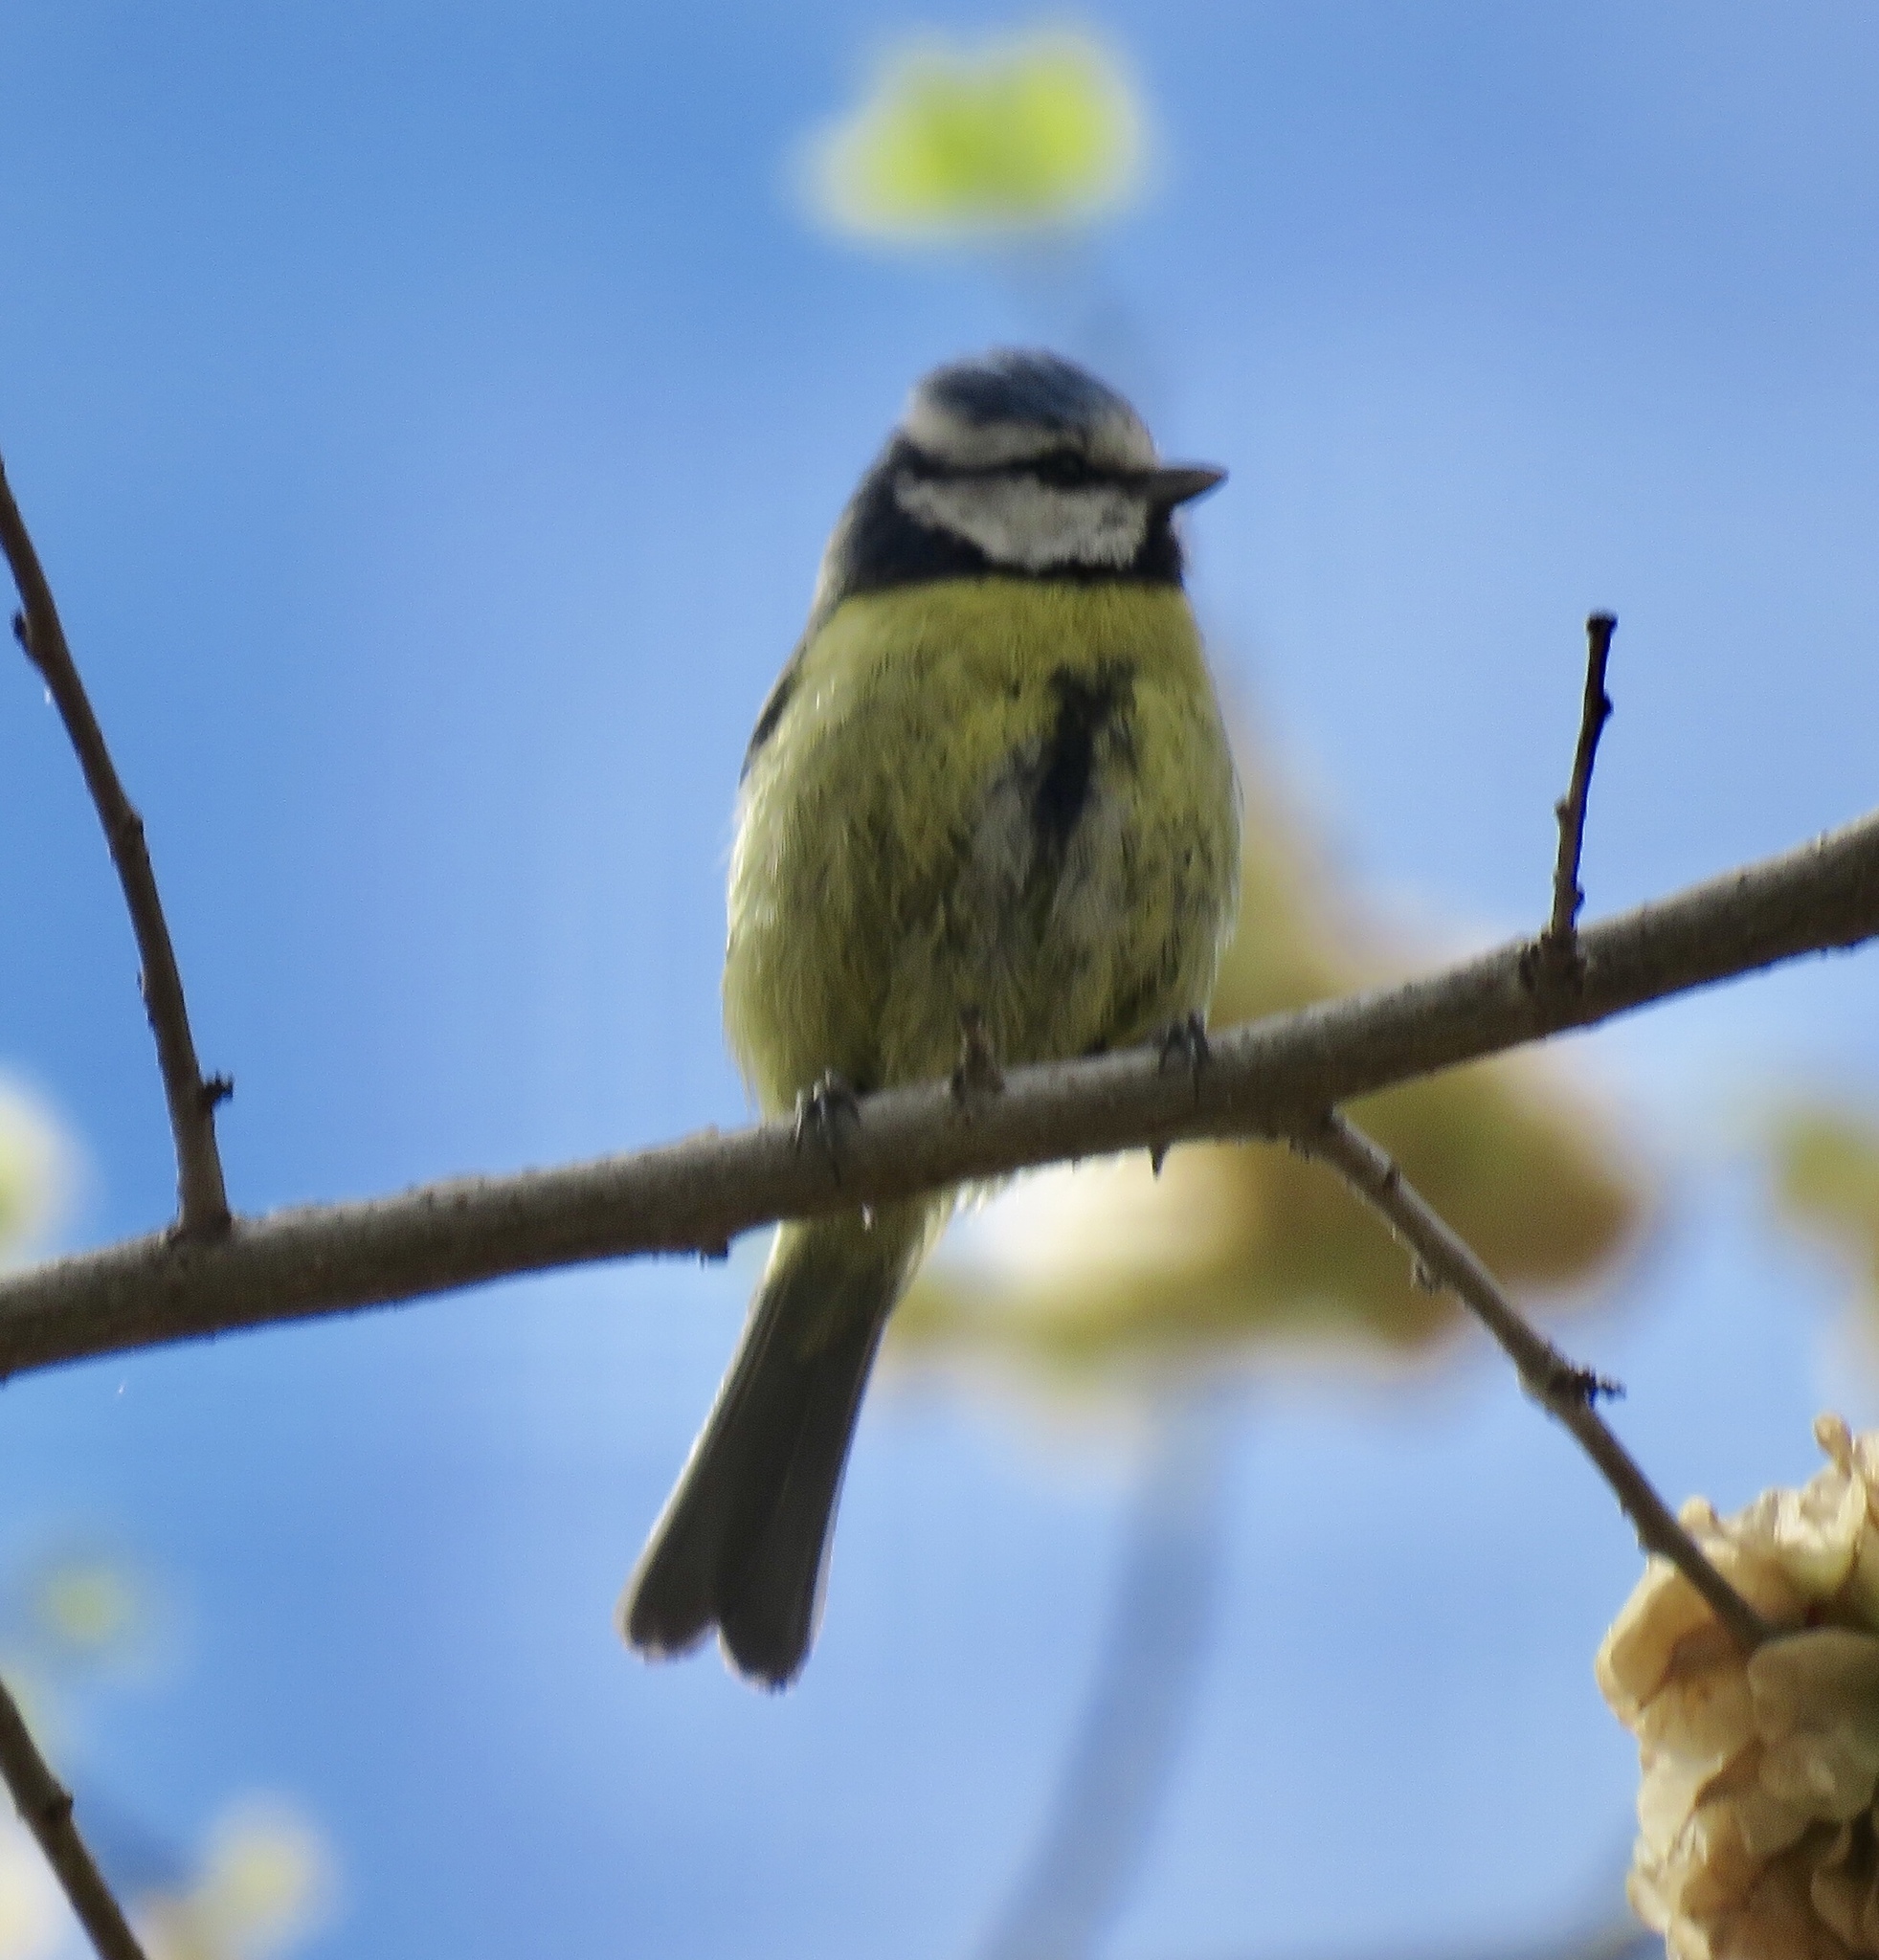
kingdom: Animalia
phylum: Chordata
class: Aves
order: Passeriformes
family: Paridae
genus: Cyanistes
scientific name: Cyanistes caeruleus
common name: Eurasian blue tit
